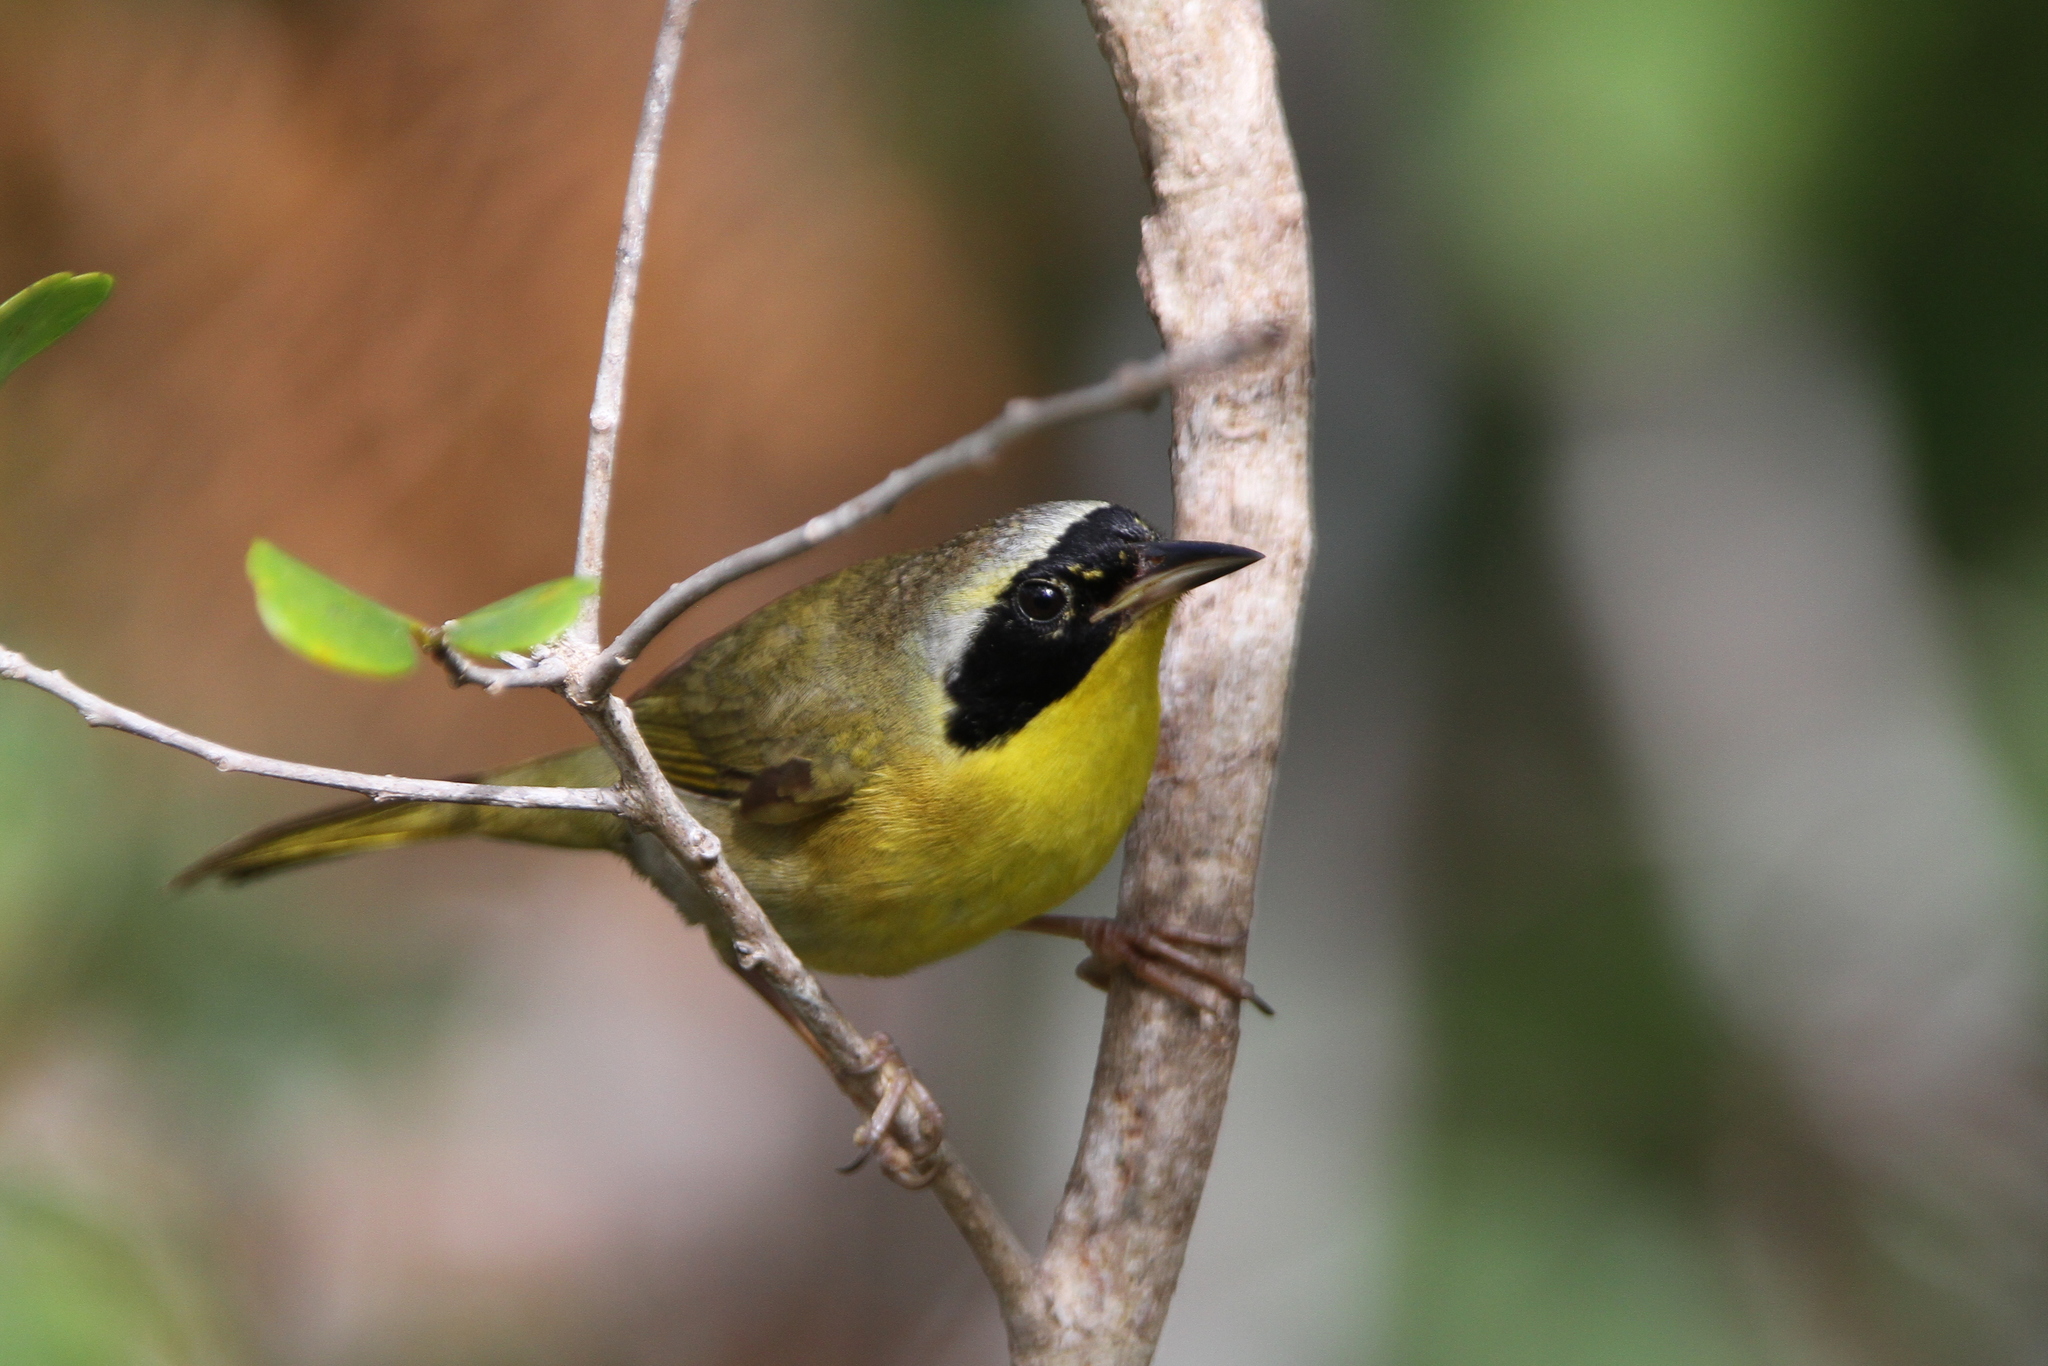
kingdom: Animalia
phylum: Chordata
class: Aves
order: Passeriformes
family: Parulidae
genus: Geothlypis
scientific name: Geothlypis rostrata
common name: Bahama yellowthroat
